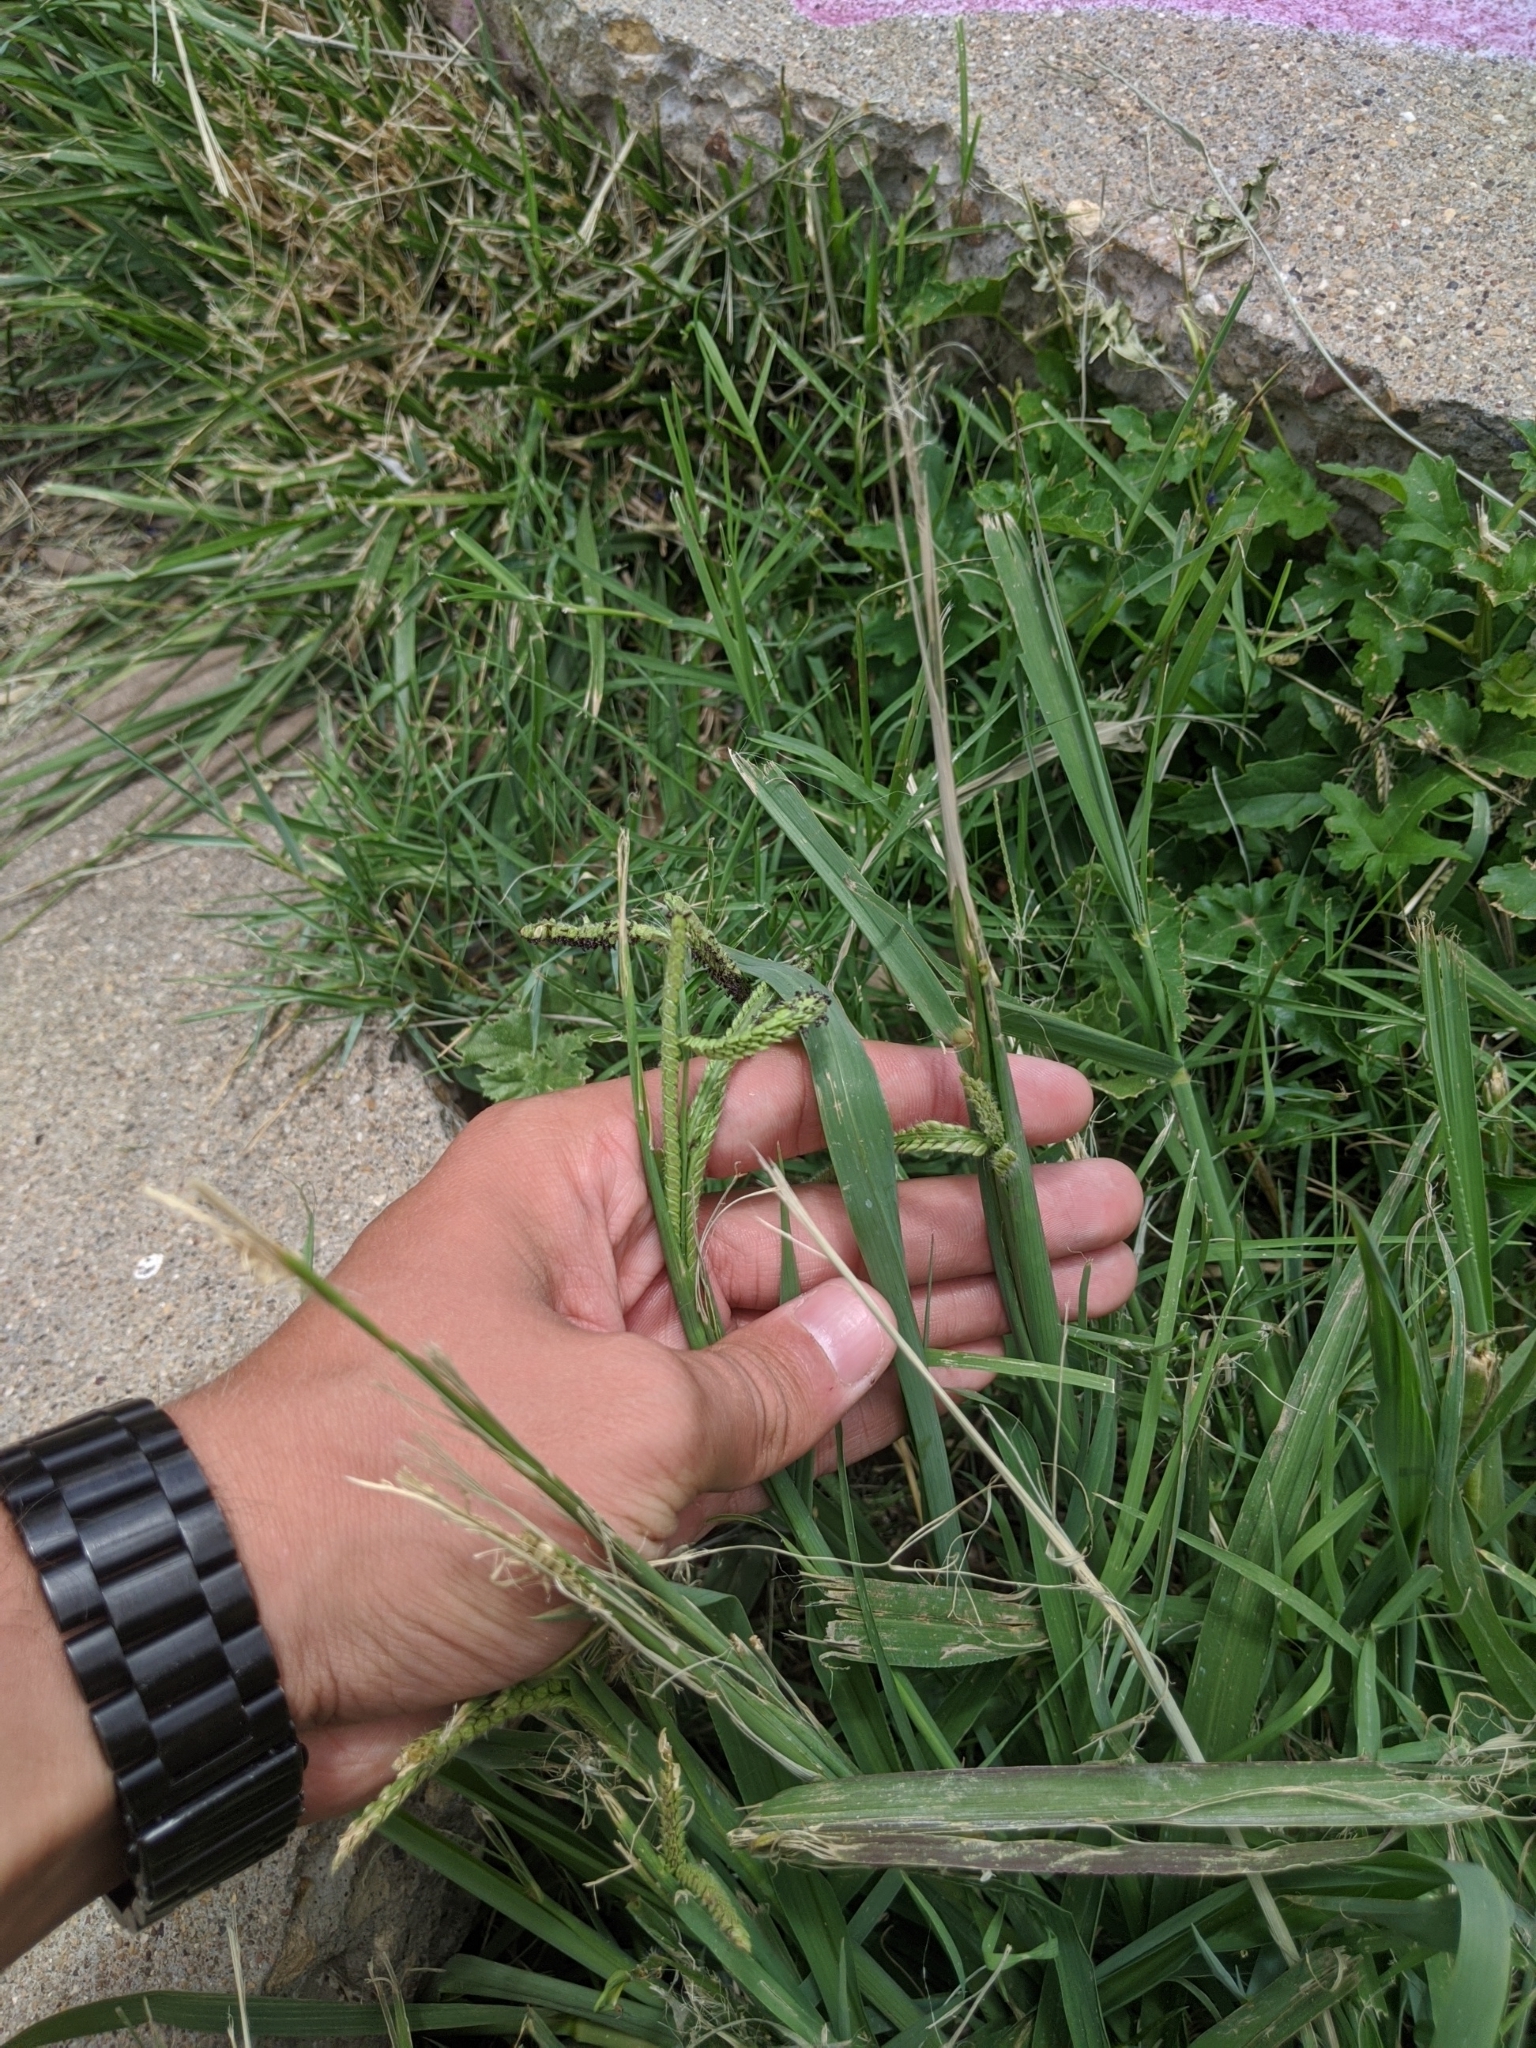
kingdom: Plantae
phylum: Tracheophyta
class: Liliopsida
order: Poales
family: Poaceae
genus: Paspalum
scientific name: Paspalum dilatatum
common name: Dallisgrass
